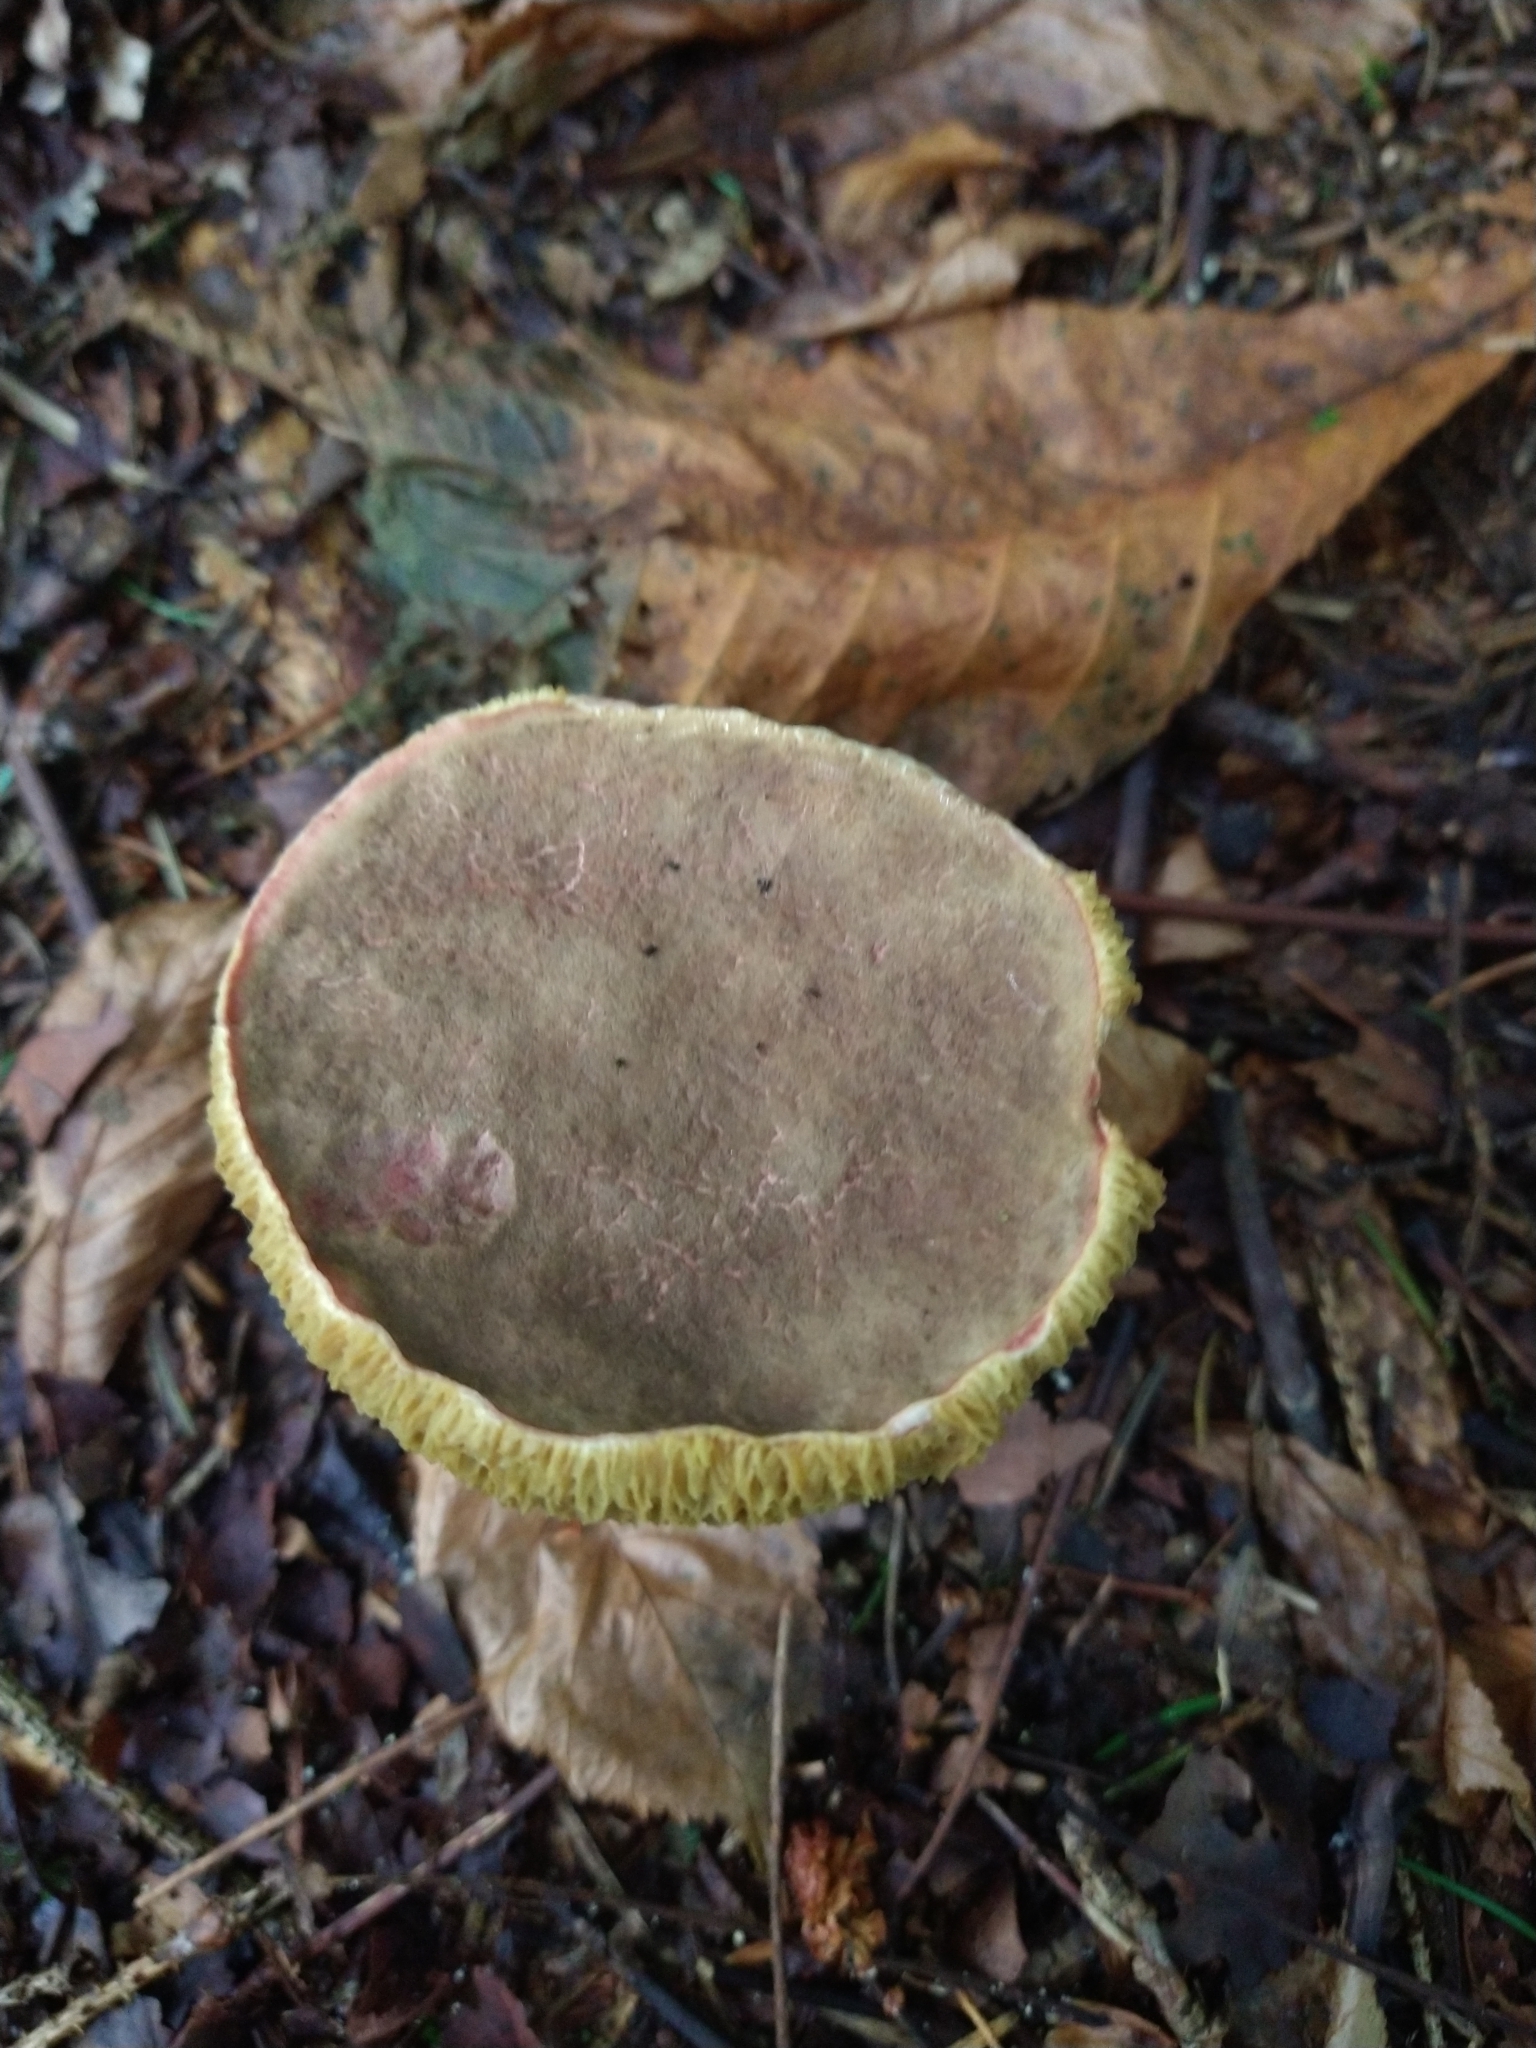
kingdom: Fungi
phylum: Basidiomycota
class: Agaricomycetes
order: Boletales
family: Boletaceae
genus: Xerocomellus
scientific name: Xerocomellus chrysenteron
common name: Red-cracking bolete
